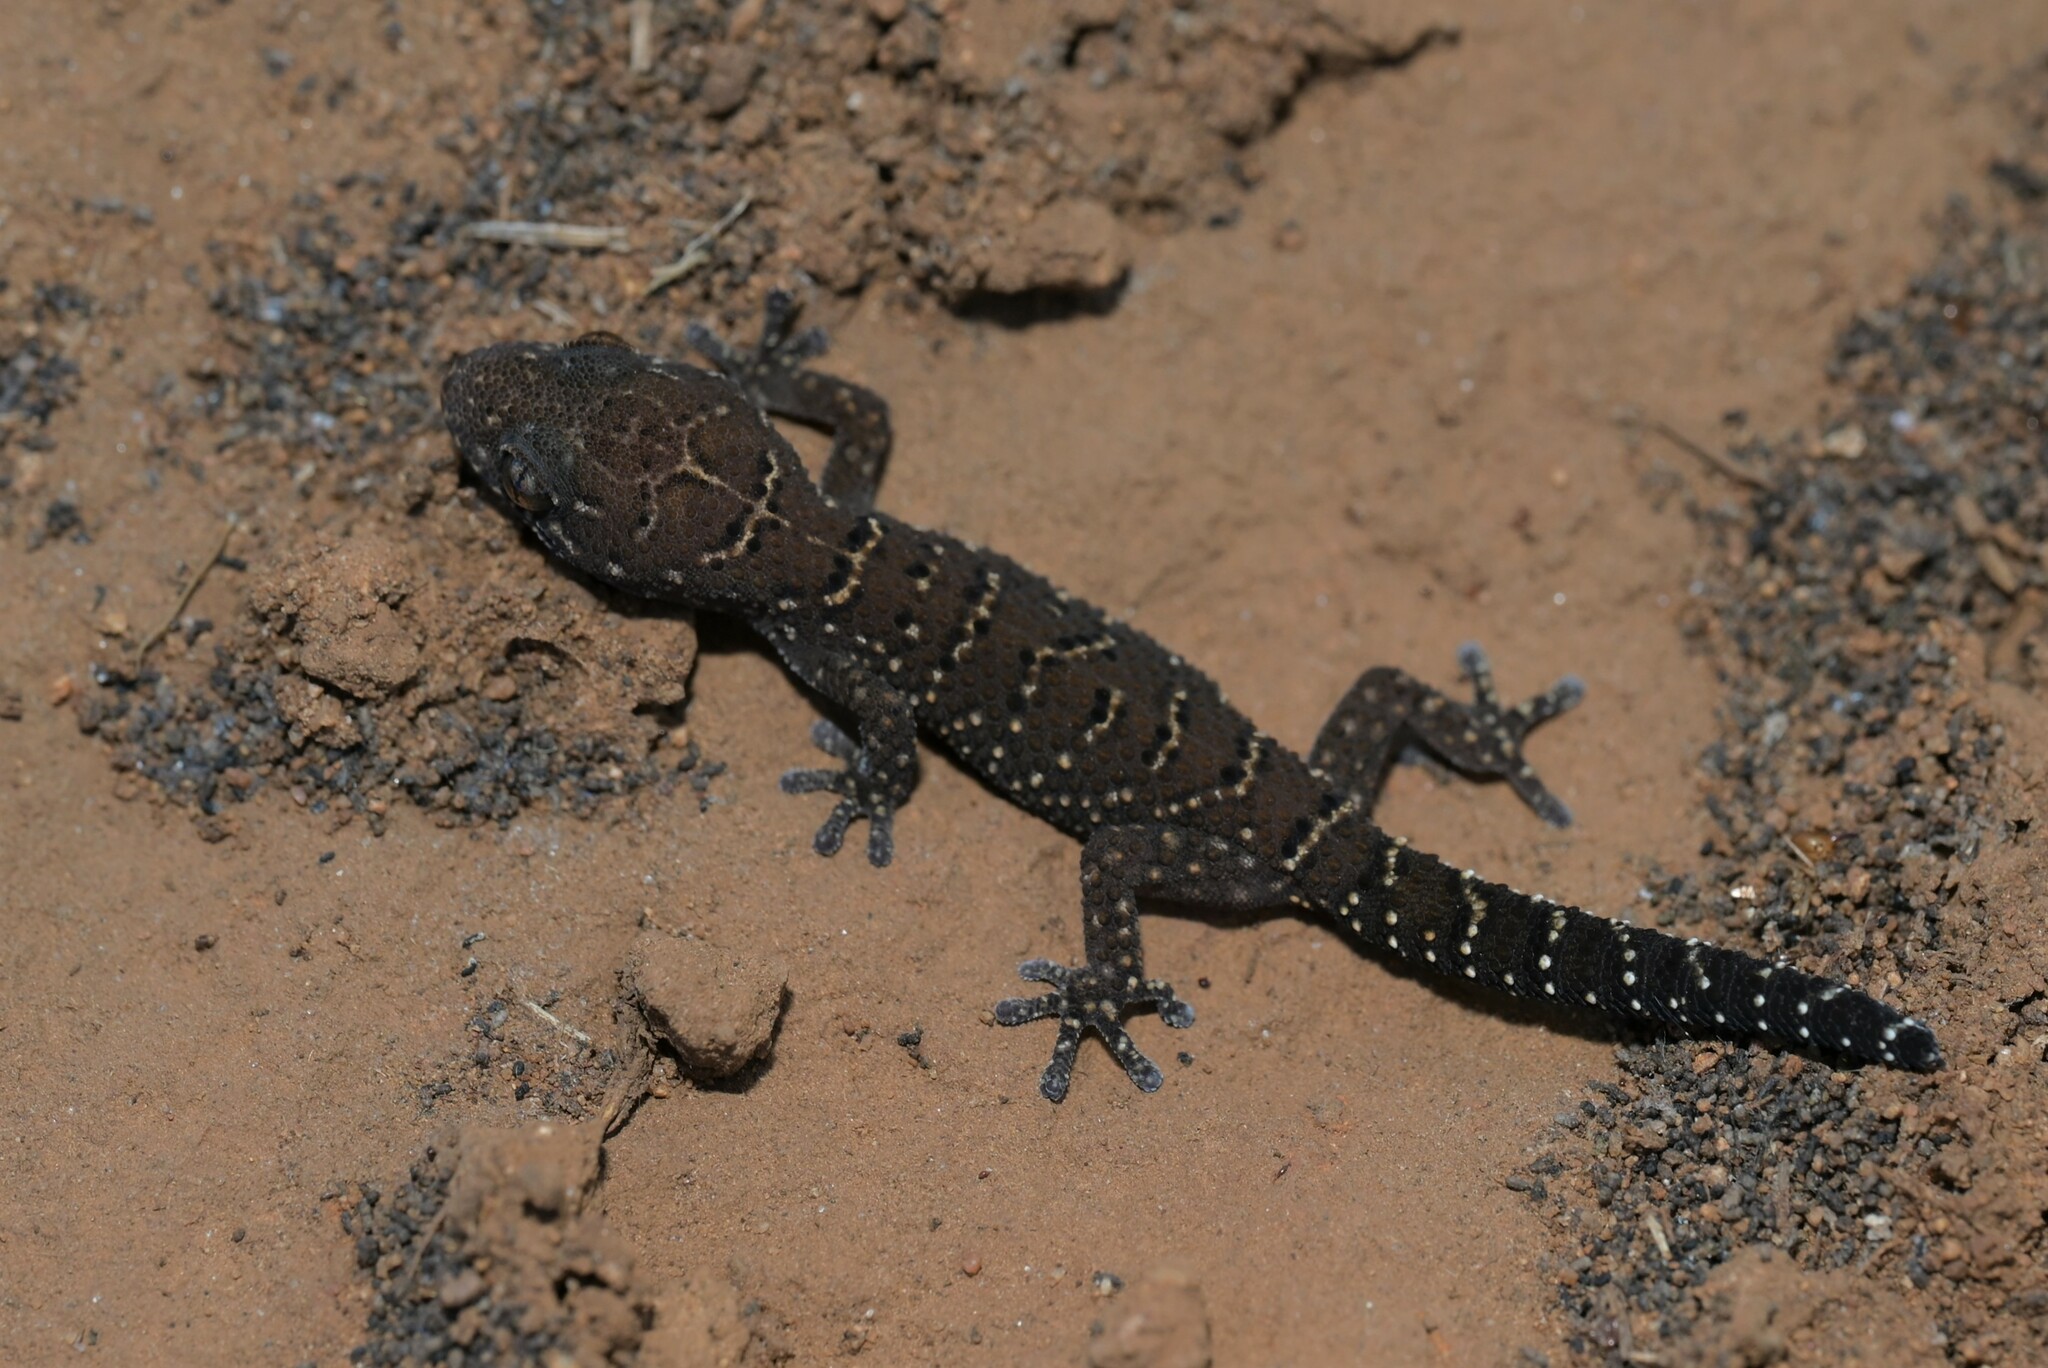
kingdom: Animalia
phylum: Chordata
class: Squamata
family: Gekkonidae
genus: Pachydactylus
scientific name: Pachydactylus vansoni
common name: Van son's gecko
